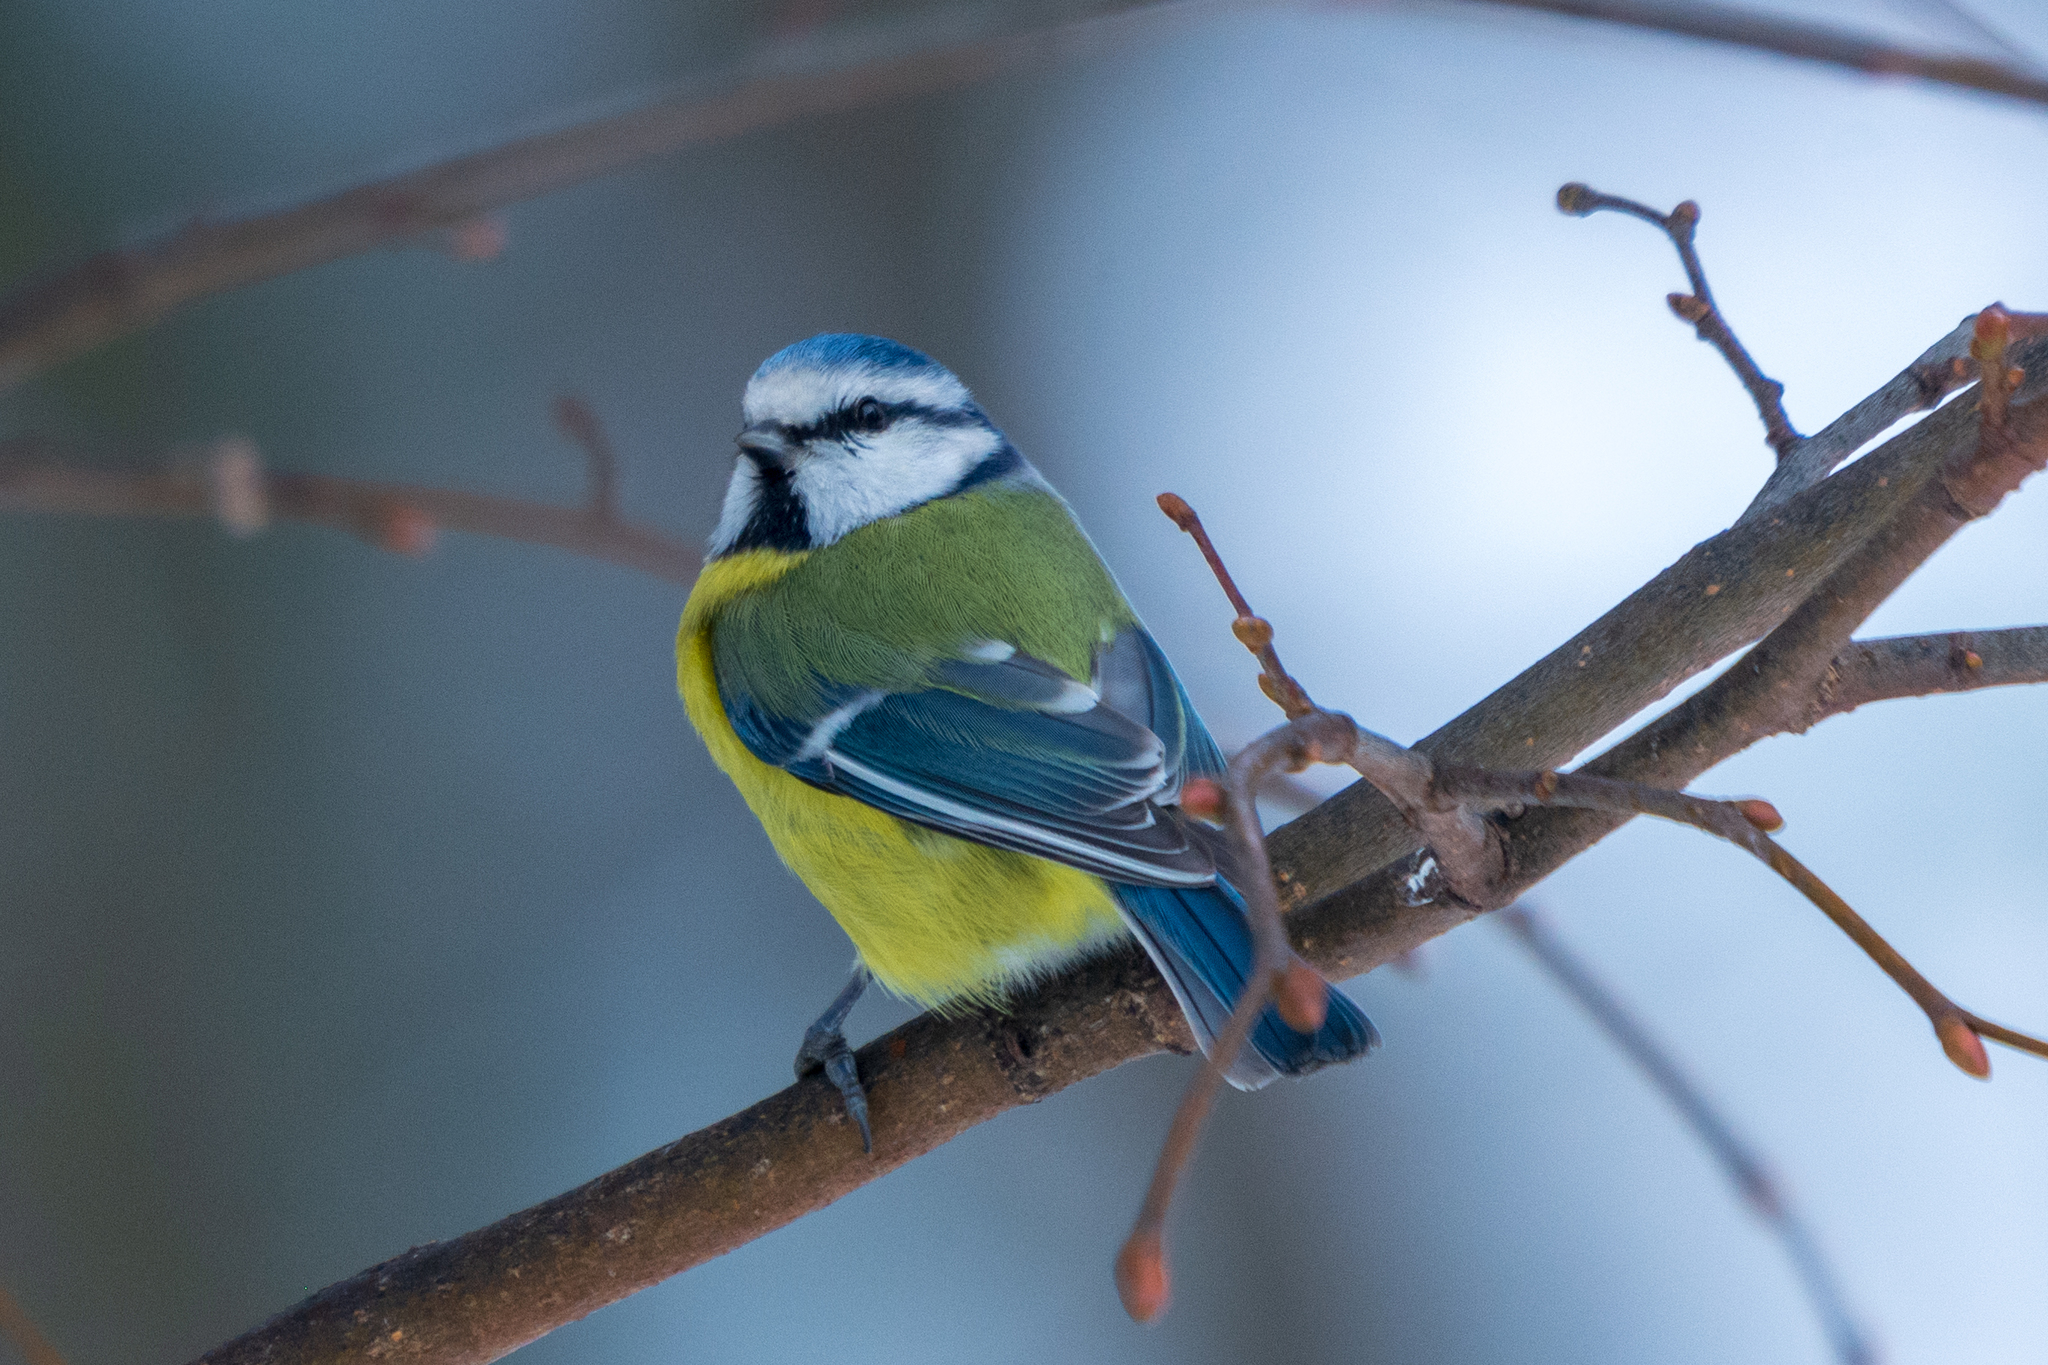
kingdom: Animalia
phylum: Chordata
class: Aves
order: Passeriformes
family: Paridae
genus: Cyanistes
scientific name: Cyanistes caeruleus
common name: Eurasian blue tit
